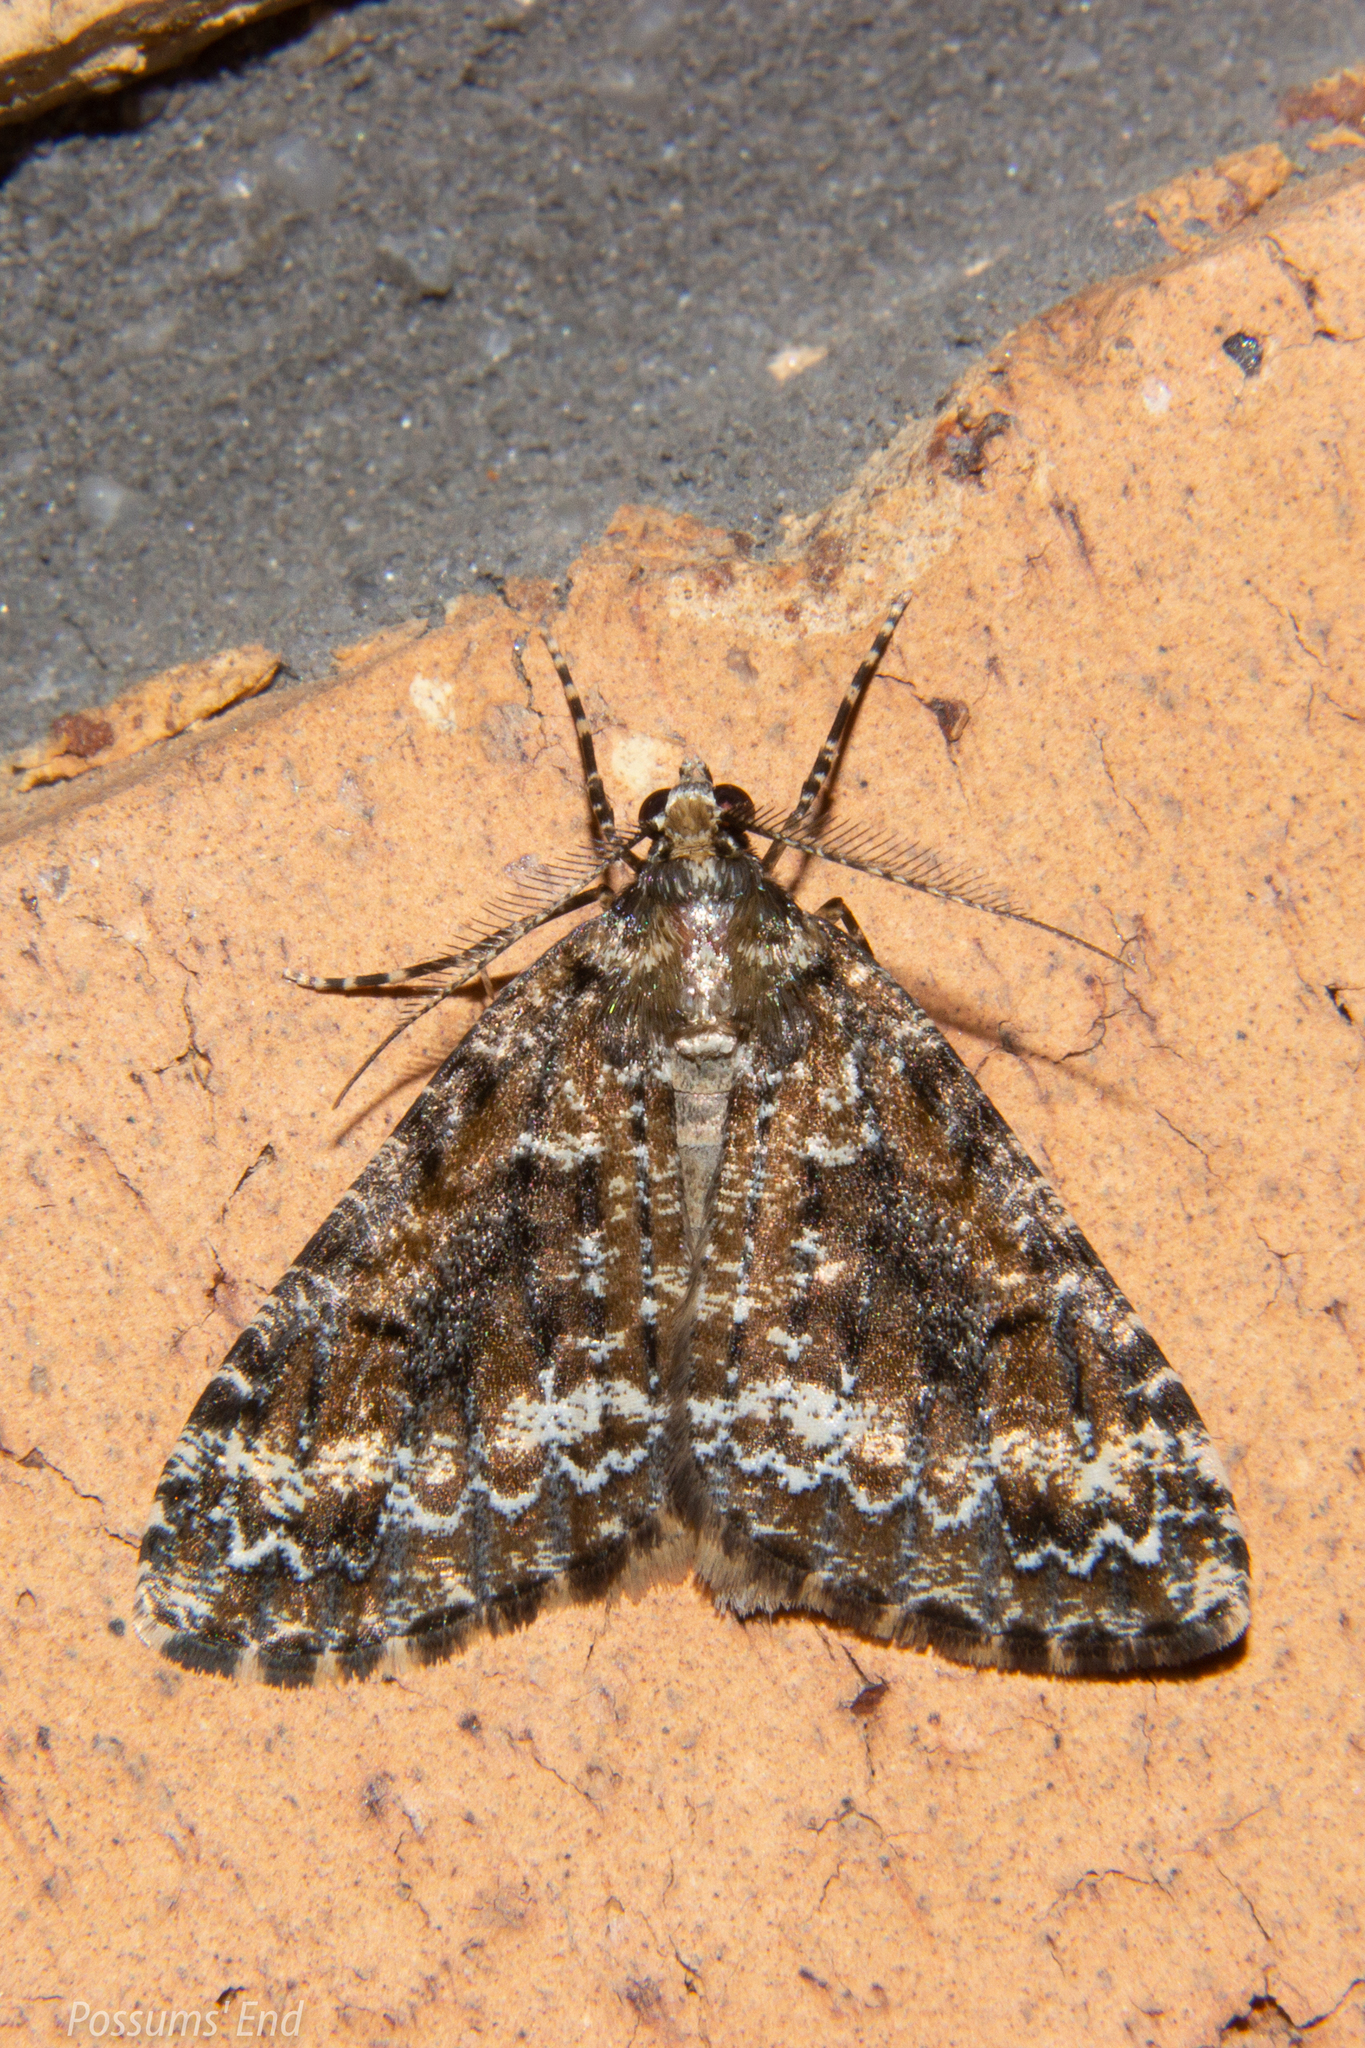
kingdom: Animalia
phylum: Arthropoda
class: Insecta
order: Lepidoptera
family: Geometridae
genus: Pseudocoremia
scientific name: Pseudocoremia leucelaea
